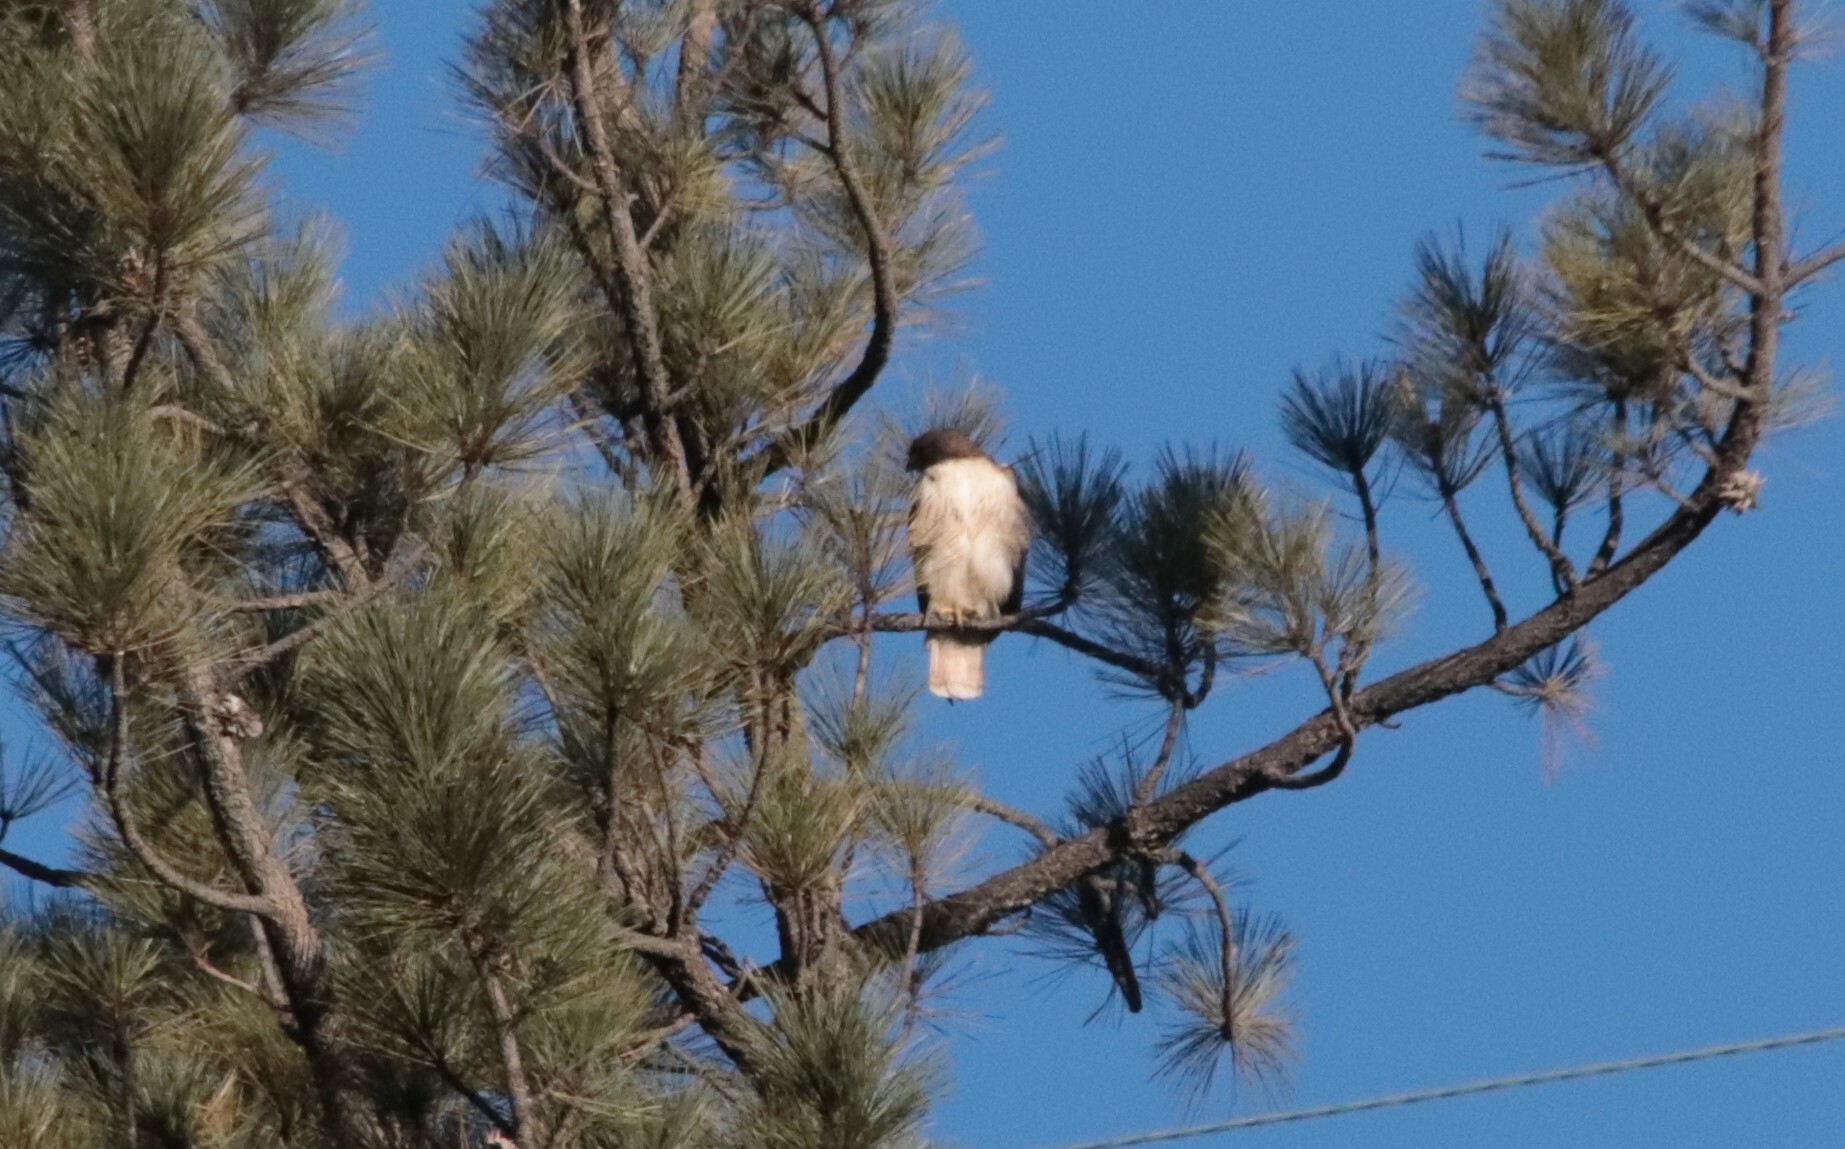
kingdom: Animalia
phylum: Chordata
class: Aves
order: Accipitriformes
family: Accipitridae
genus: Buteo
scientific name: Buteo jamaicensis
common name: Red-tailed hawk
